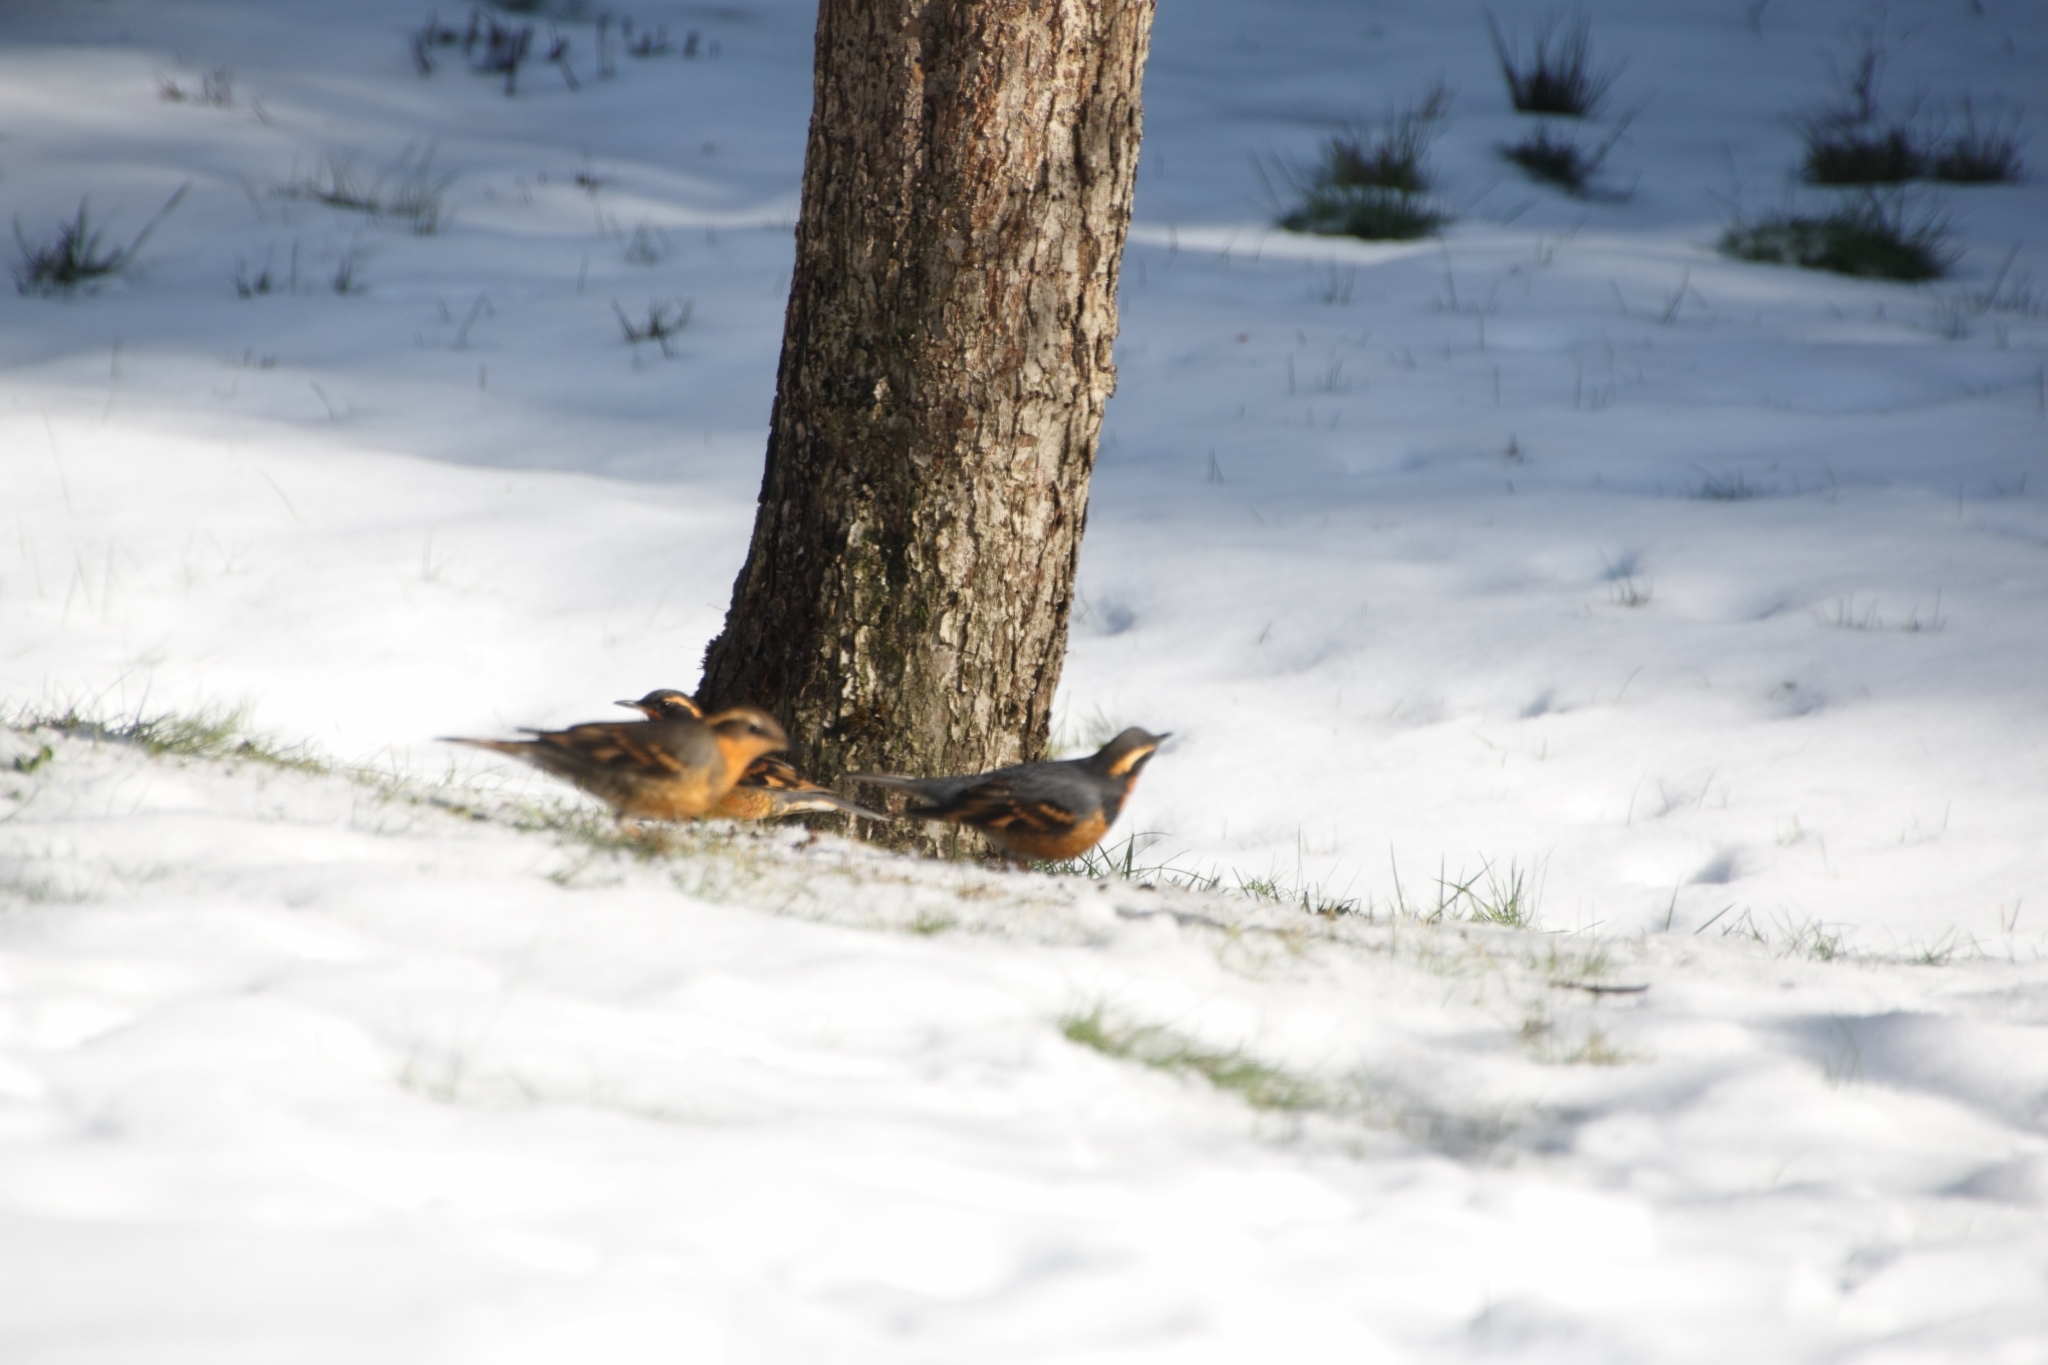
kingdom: Animalia
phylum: Chordata
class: Aves
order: Passeriformes
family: Turdidae
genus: Ixoreus
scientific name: Ixoreus naevius
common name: Varied thrush
